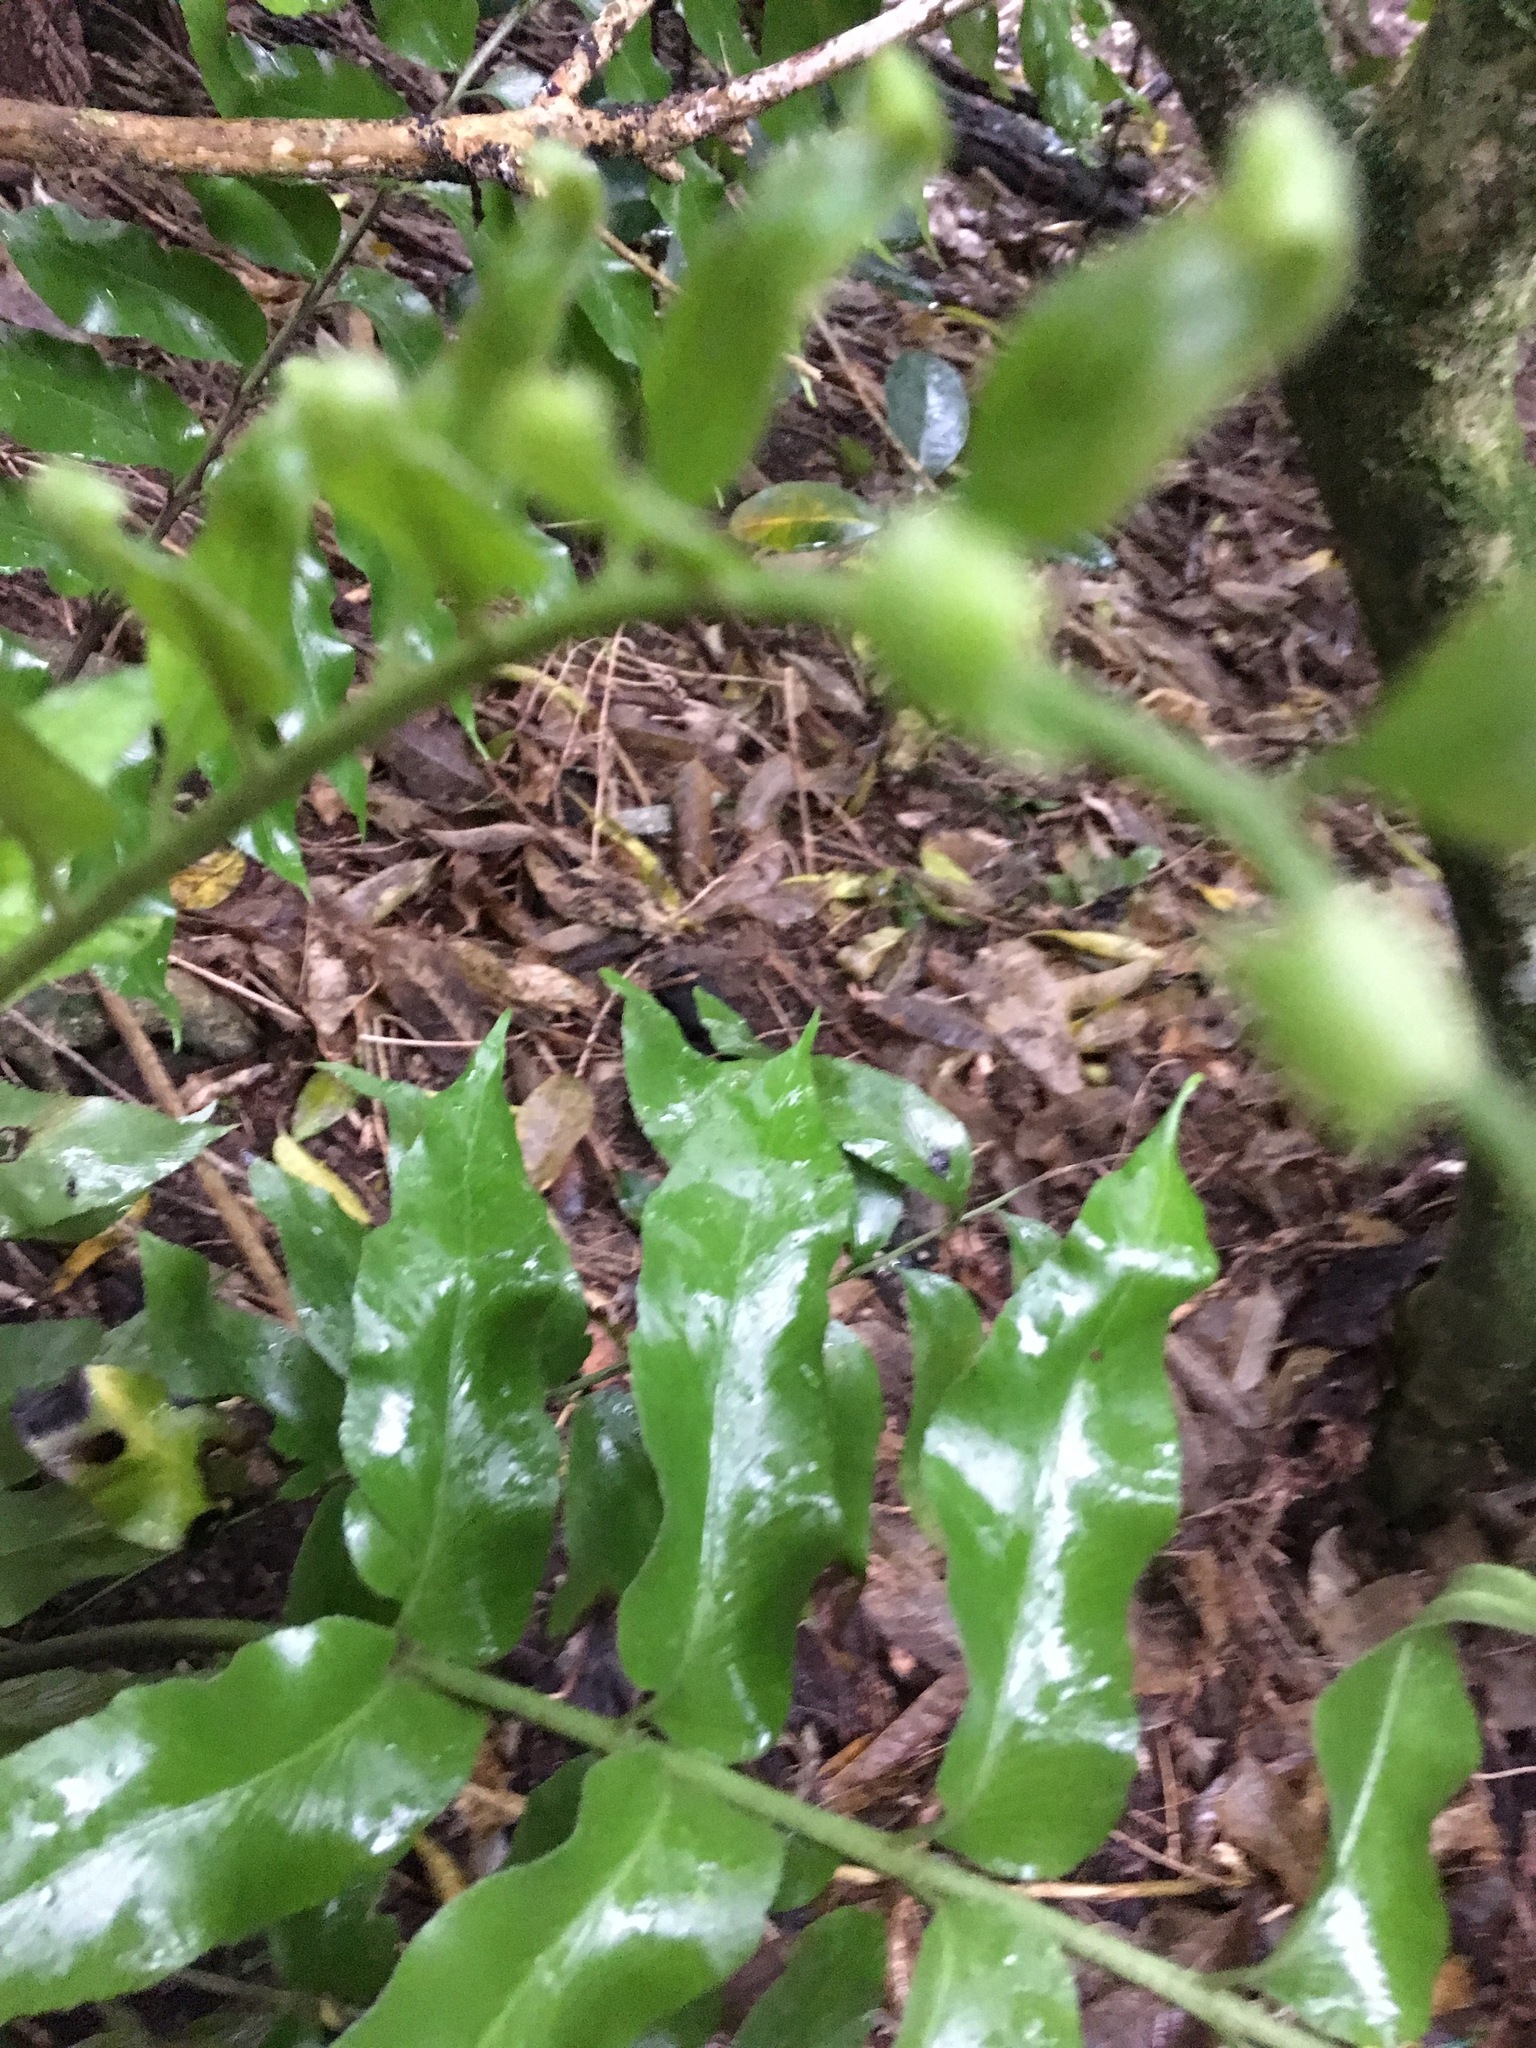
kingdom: Plantae
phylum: Tracheophyta
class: Polypodiopsida
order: Polypodiales
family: Aspleniaceae
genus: Asplenium
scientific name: Asplenium oblongifolium
